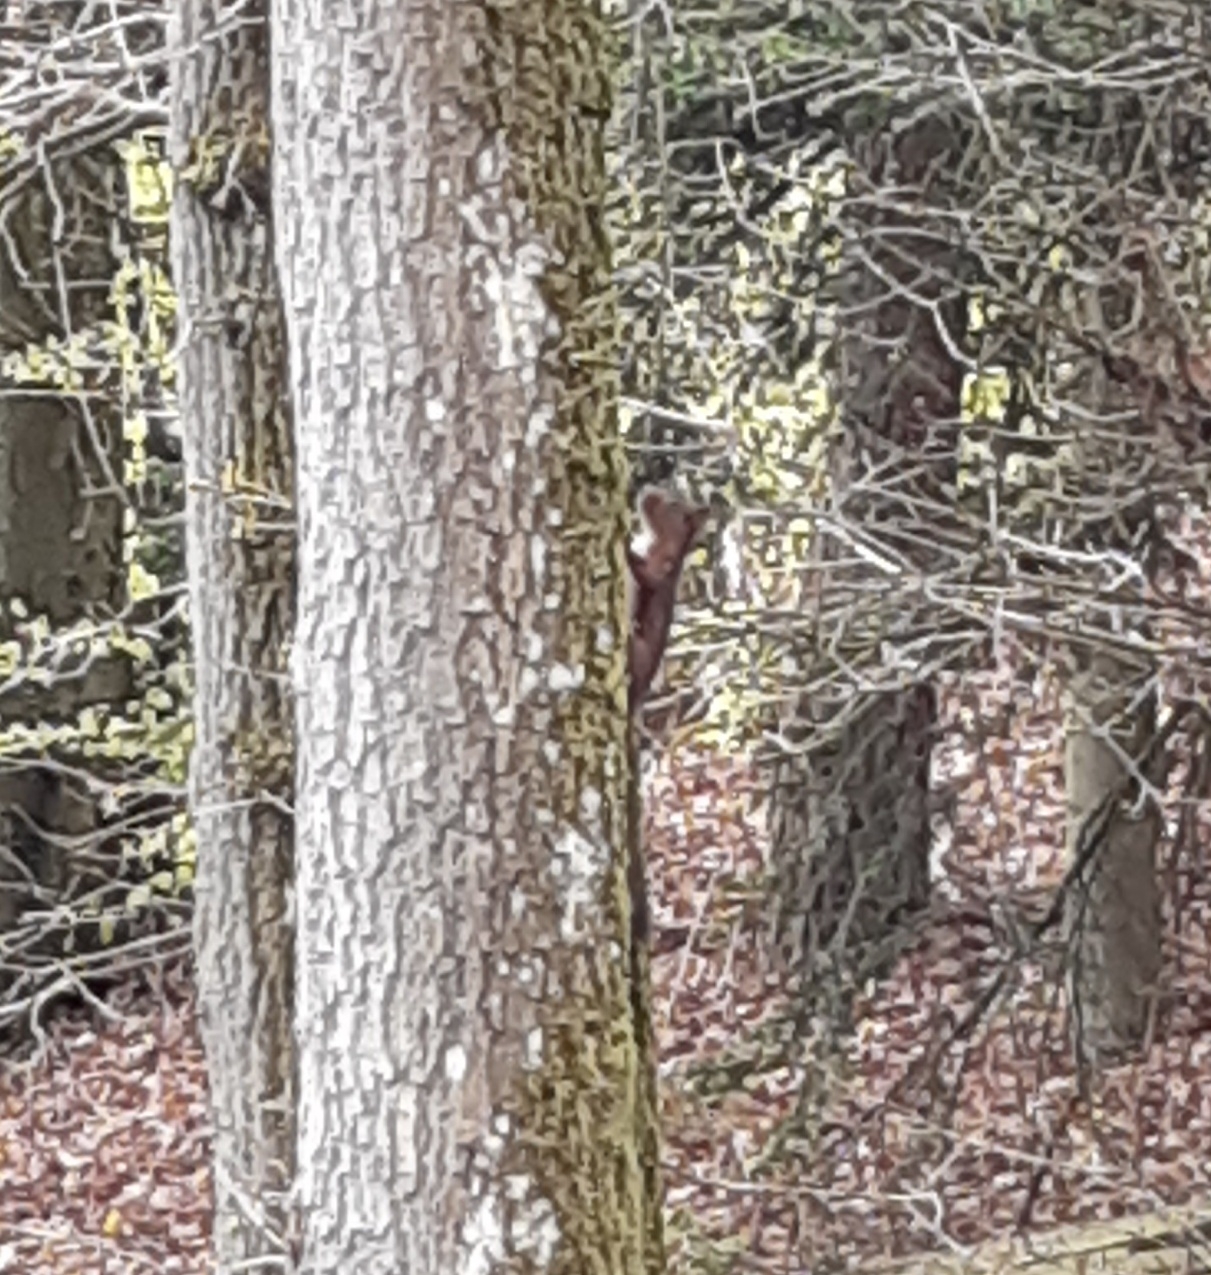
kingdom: Animalia
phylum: Chordata
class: Mammalia
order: Rodentia
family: Sciuridae
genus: Sciurus
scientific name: Sciurus vulgaris
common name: Eurasian red squirrel
